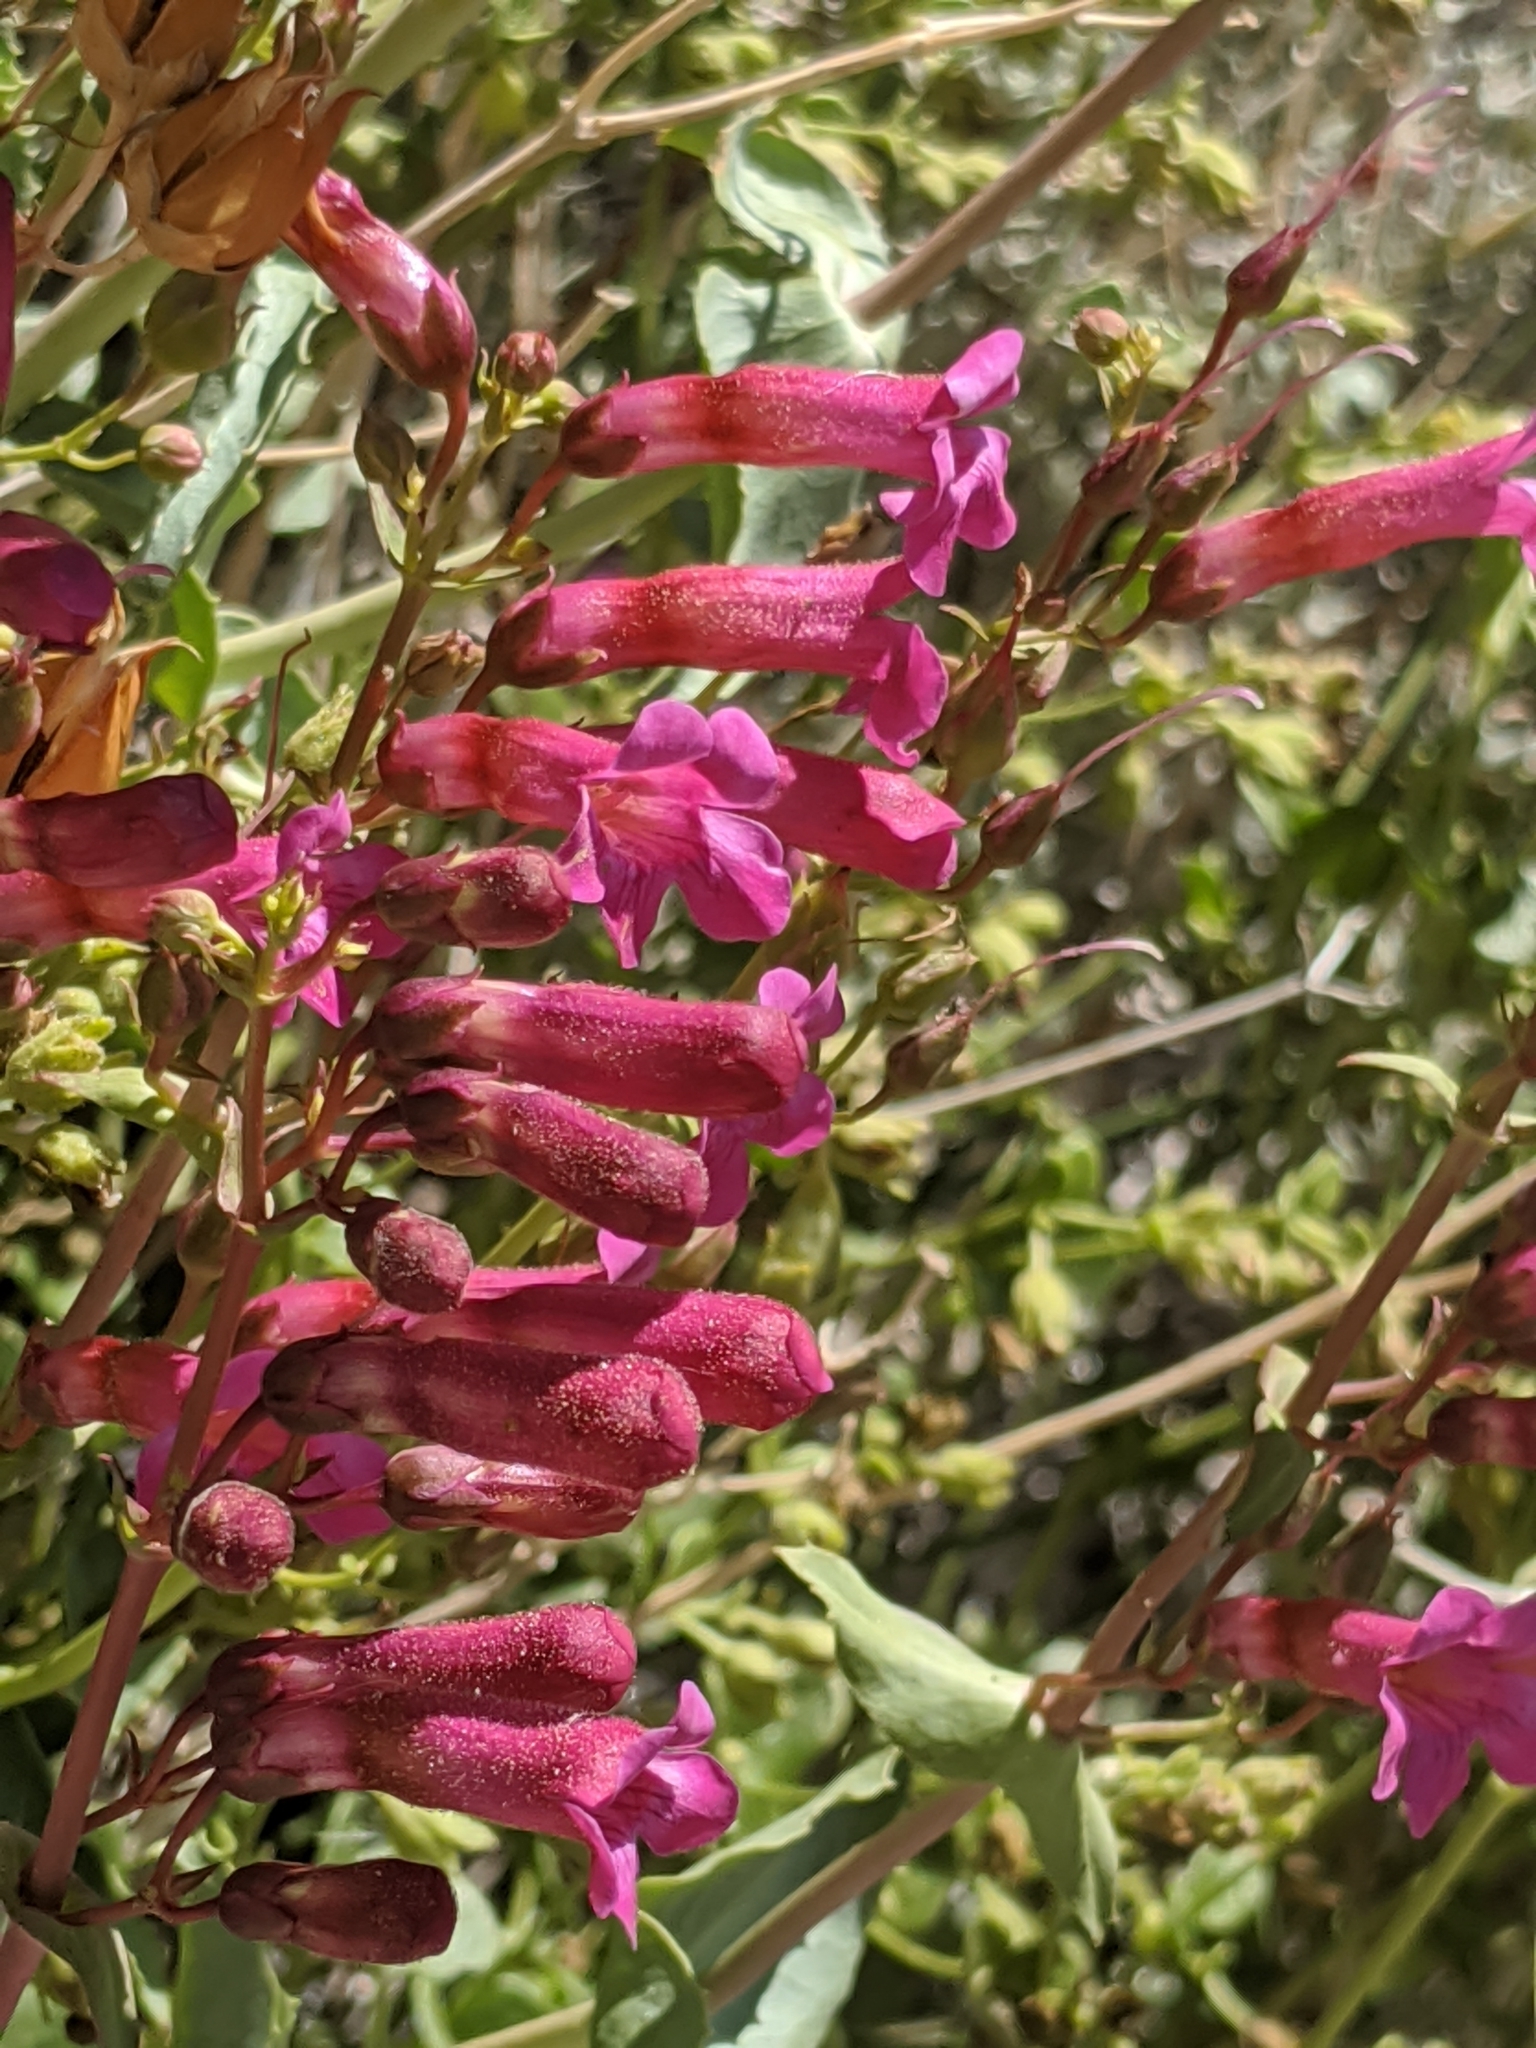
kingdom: Plantae
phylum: Tracheophyta
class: Magnoliopsida
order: Lamiales
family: Plantaginaceae
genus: Penstemon
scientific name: Penstemon clevelandii
